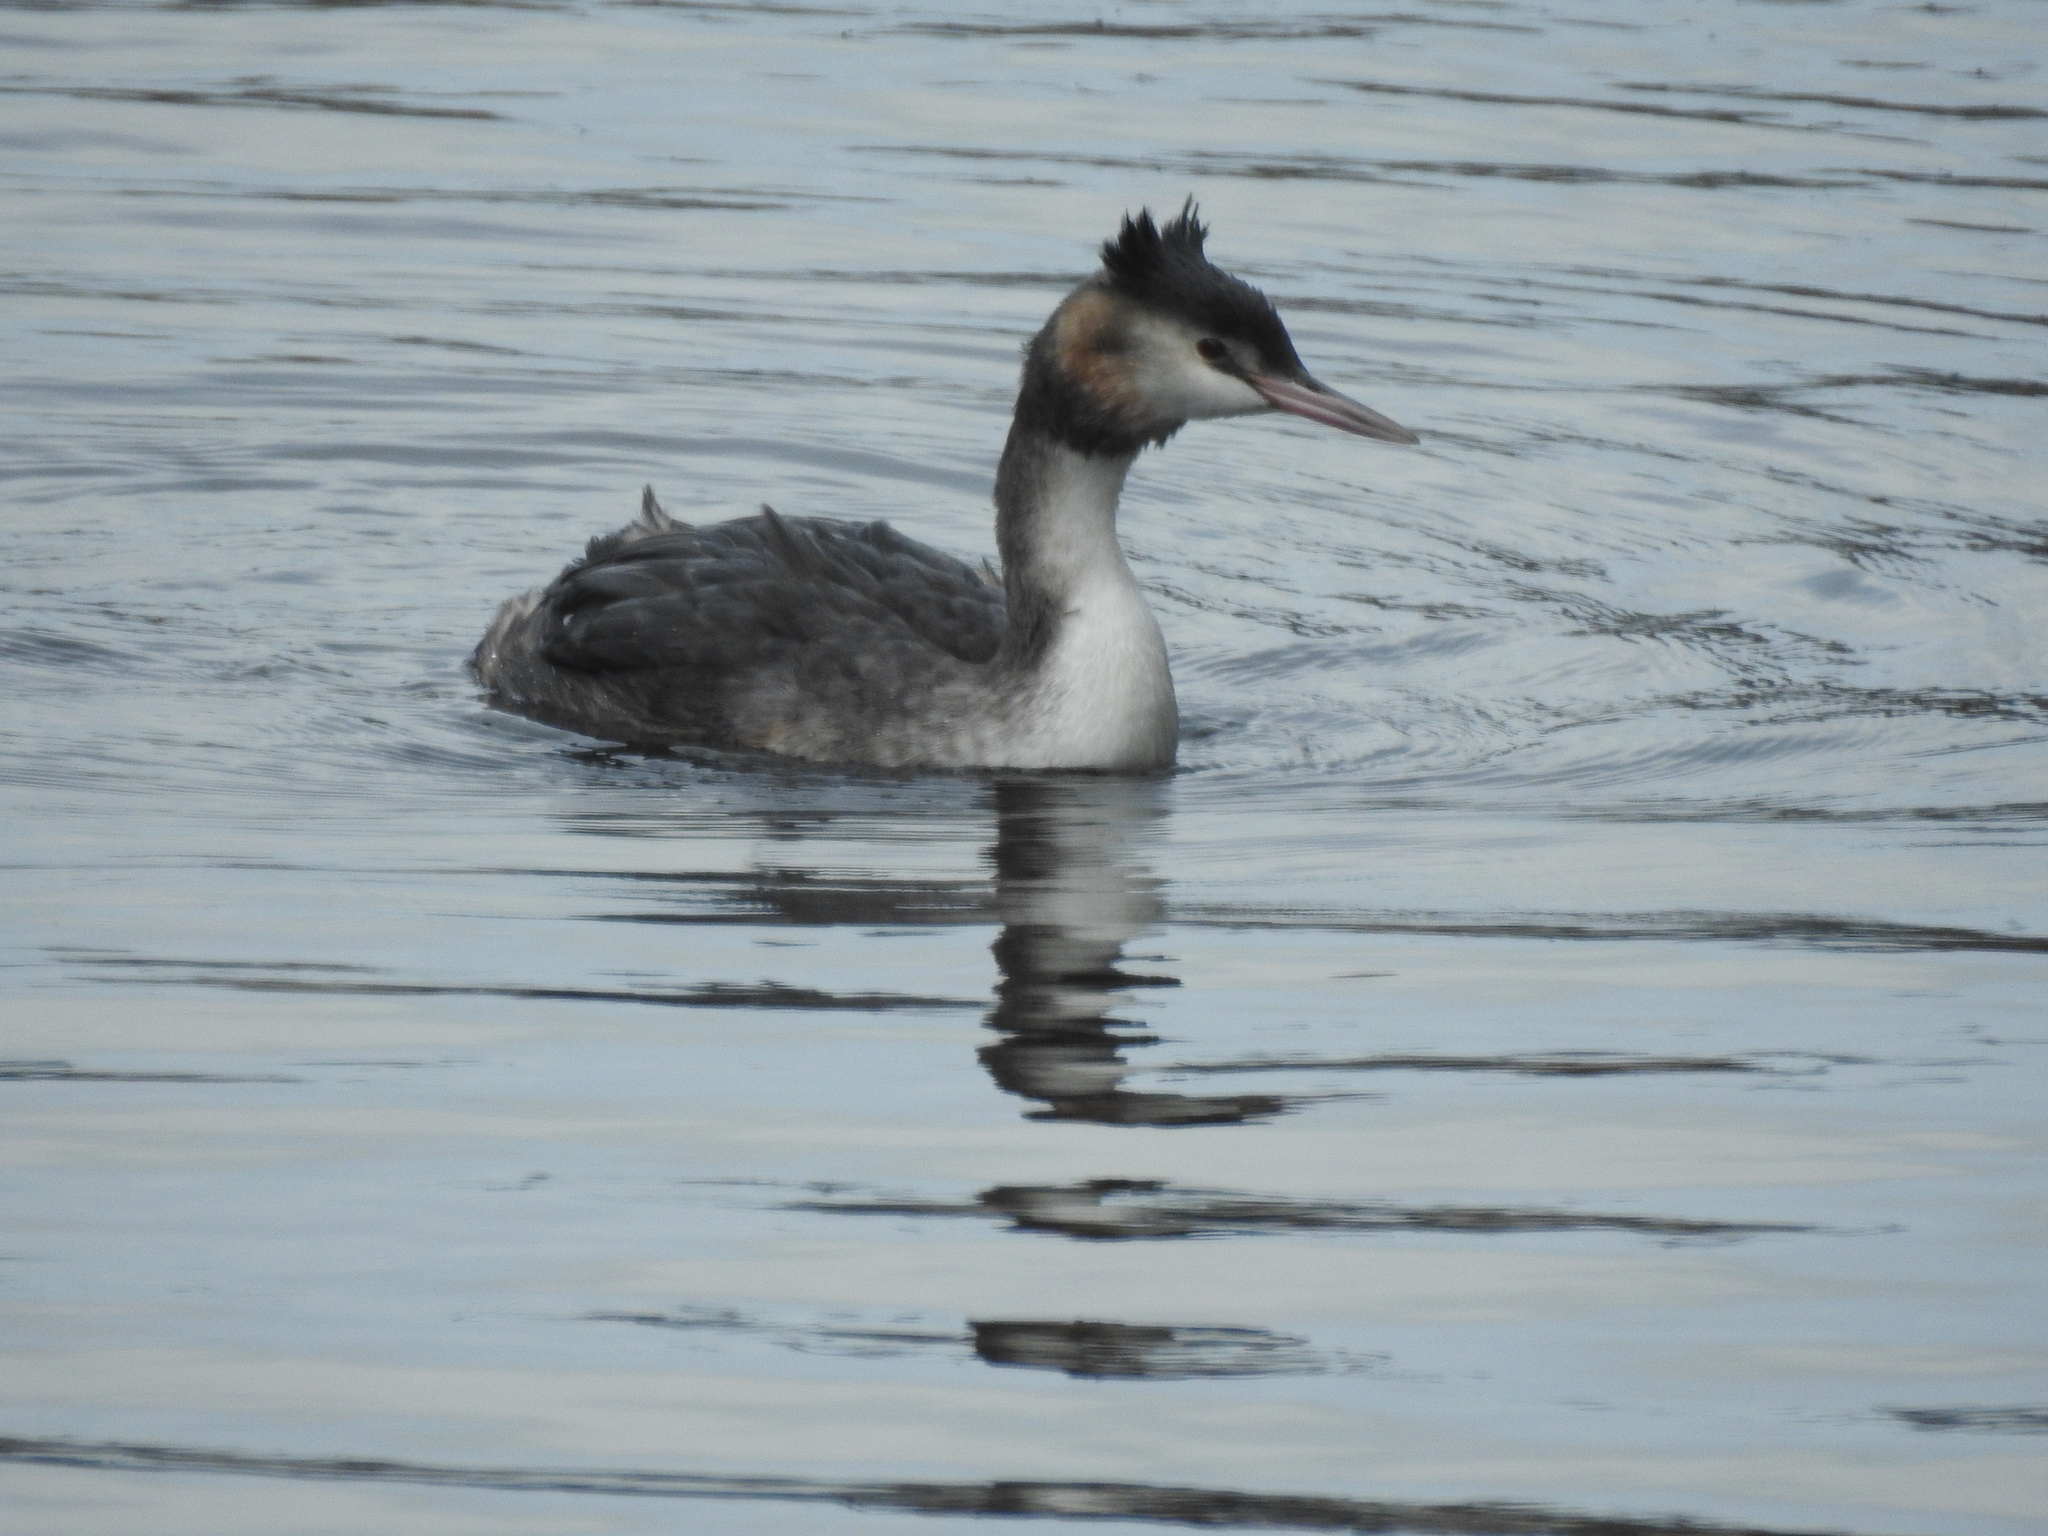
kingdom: Animalia
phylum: Chordata
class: Aves
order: Podicipediformes
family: Podicipedidae
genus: Podiceps
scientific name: Podiceps cristatus
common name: Great crested grebe
